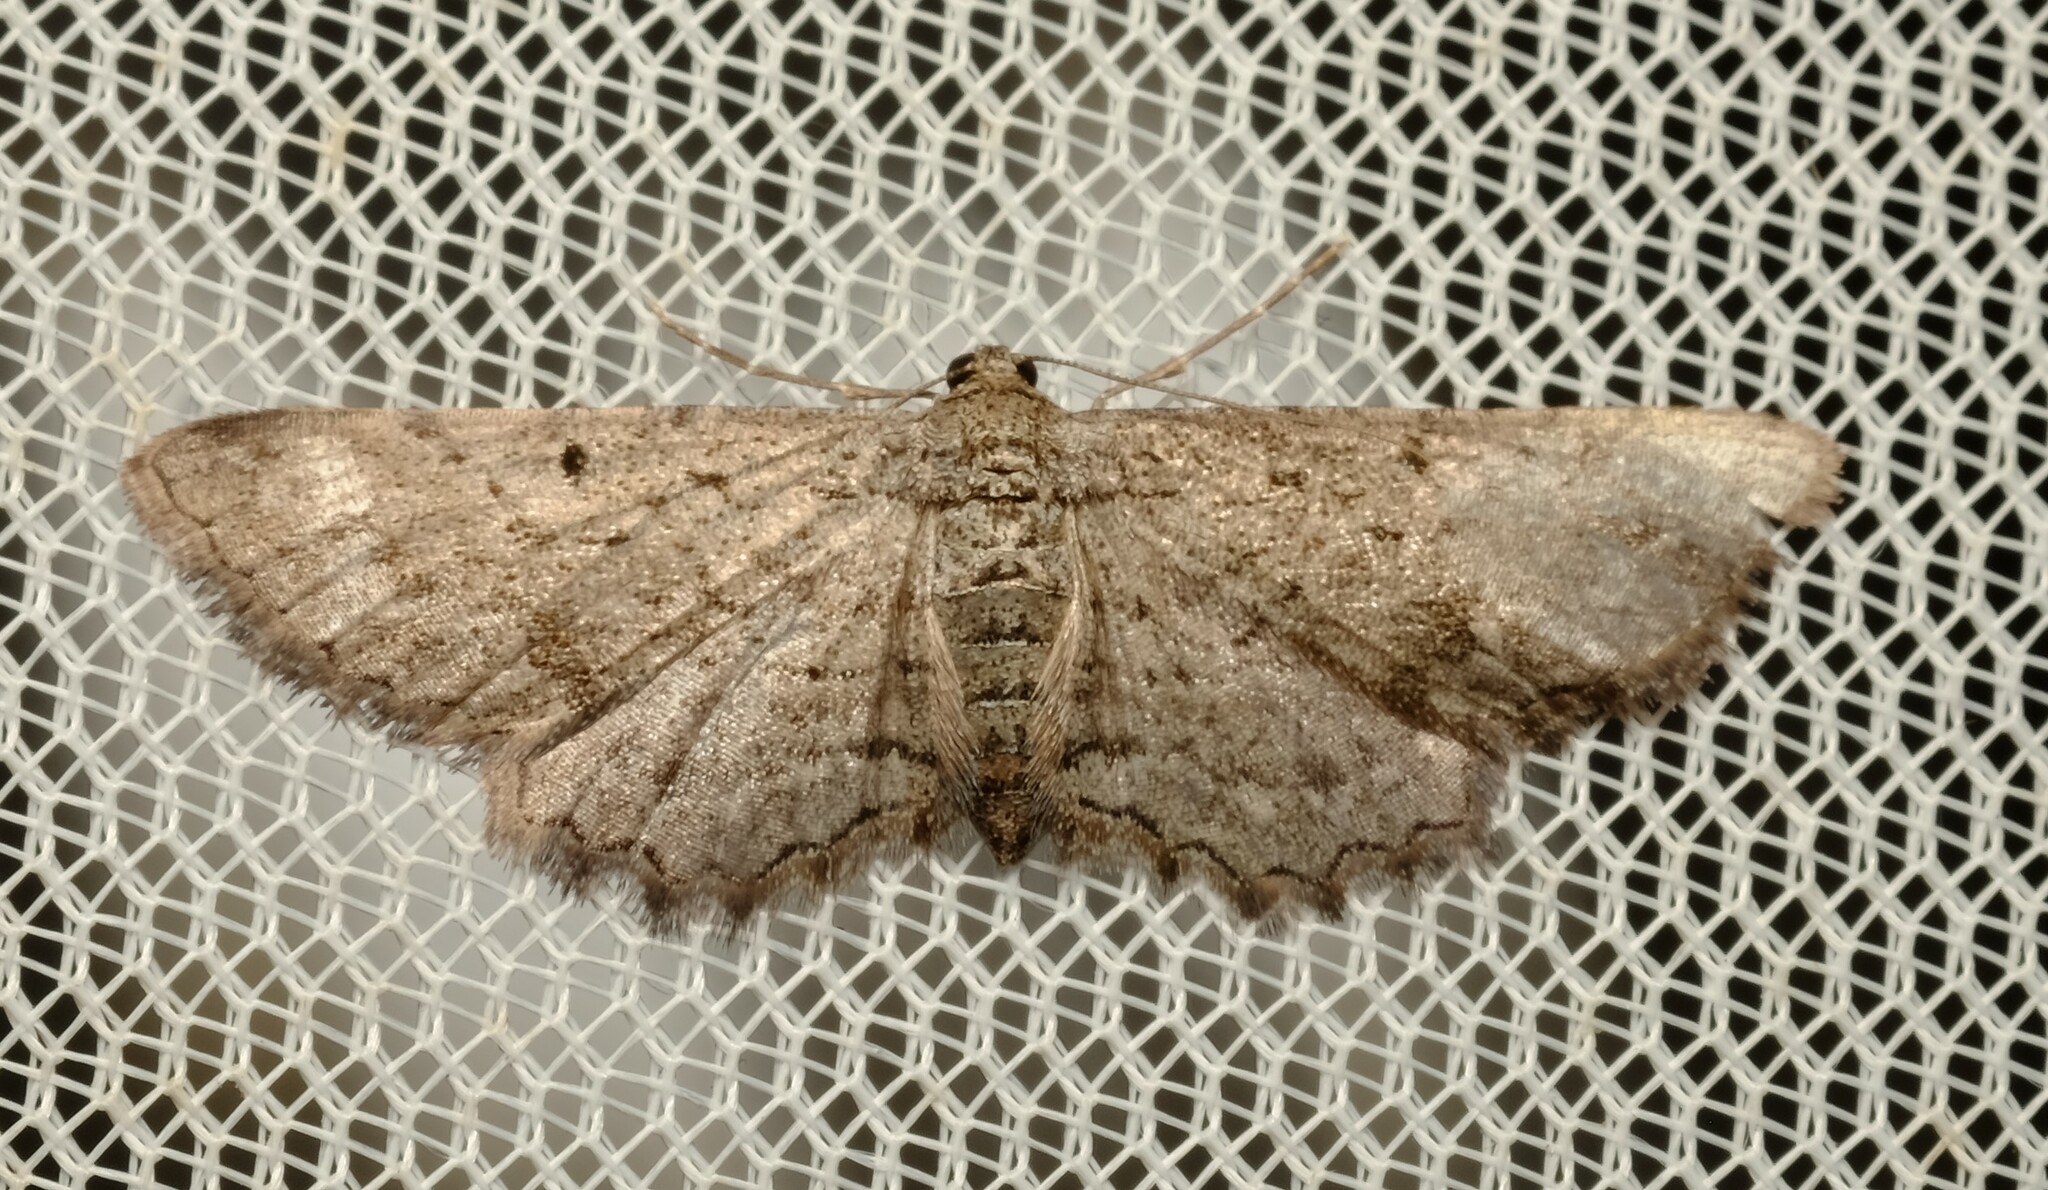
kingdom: Animalia
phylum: Arthropoda
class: Insecta
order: Lepidoptera
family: Geometridae
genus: Psilosticha
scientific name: Psilosticha pristis
